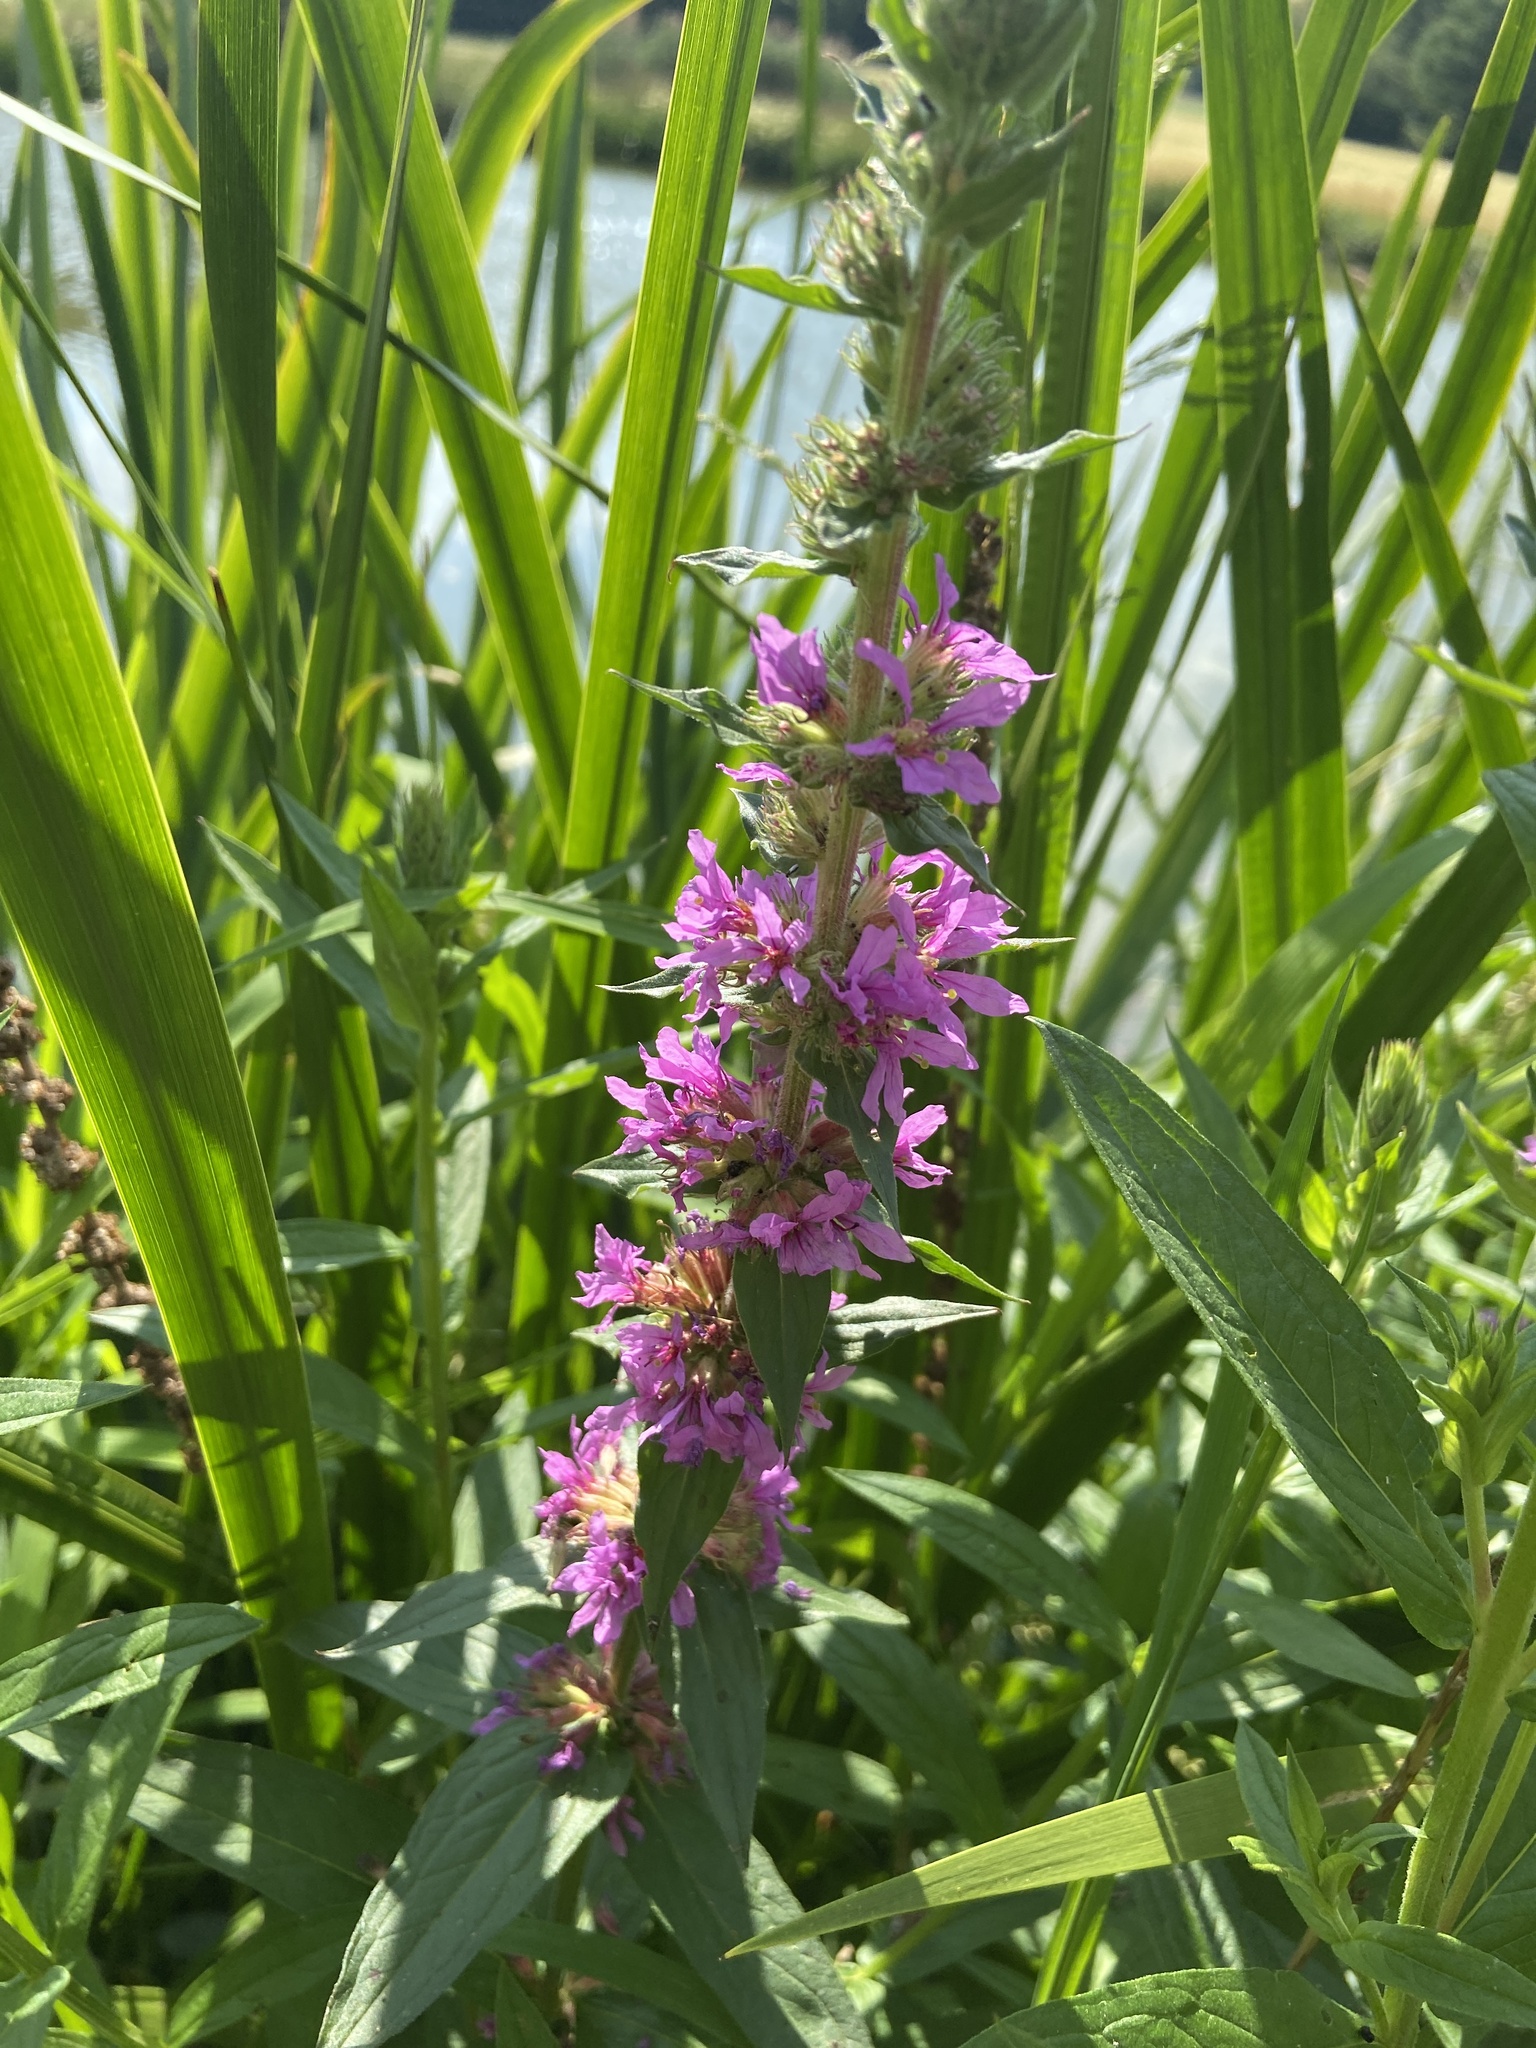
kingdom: Plantae
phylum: Tracheophyta
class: Magnoliopsida
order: Myrtales
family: Lythraceae
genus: Lythrum
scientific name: Lythrum salicaria
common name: Purple loosestrife
